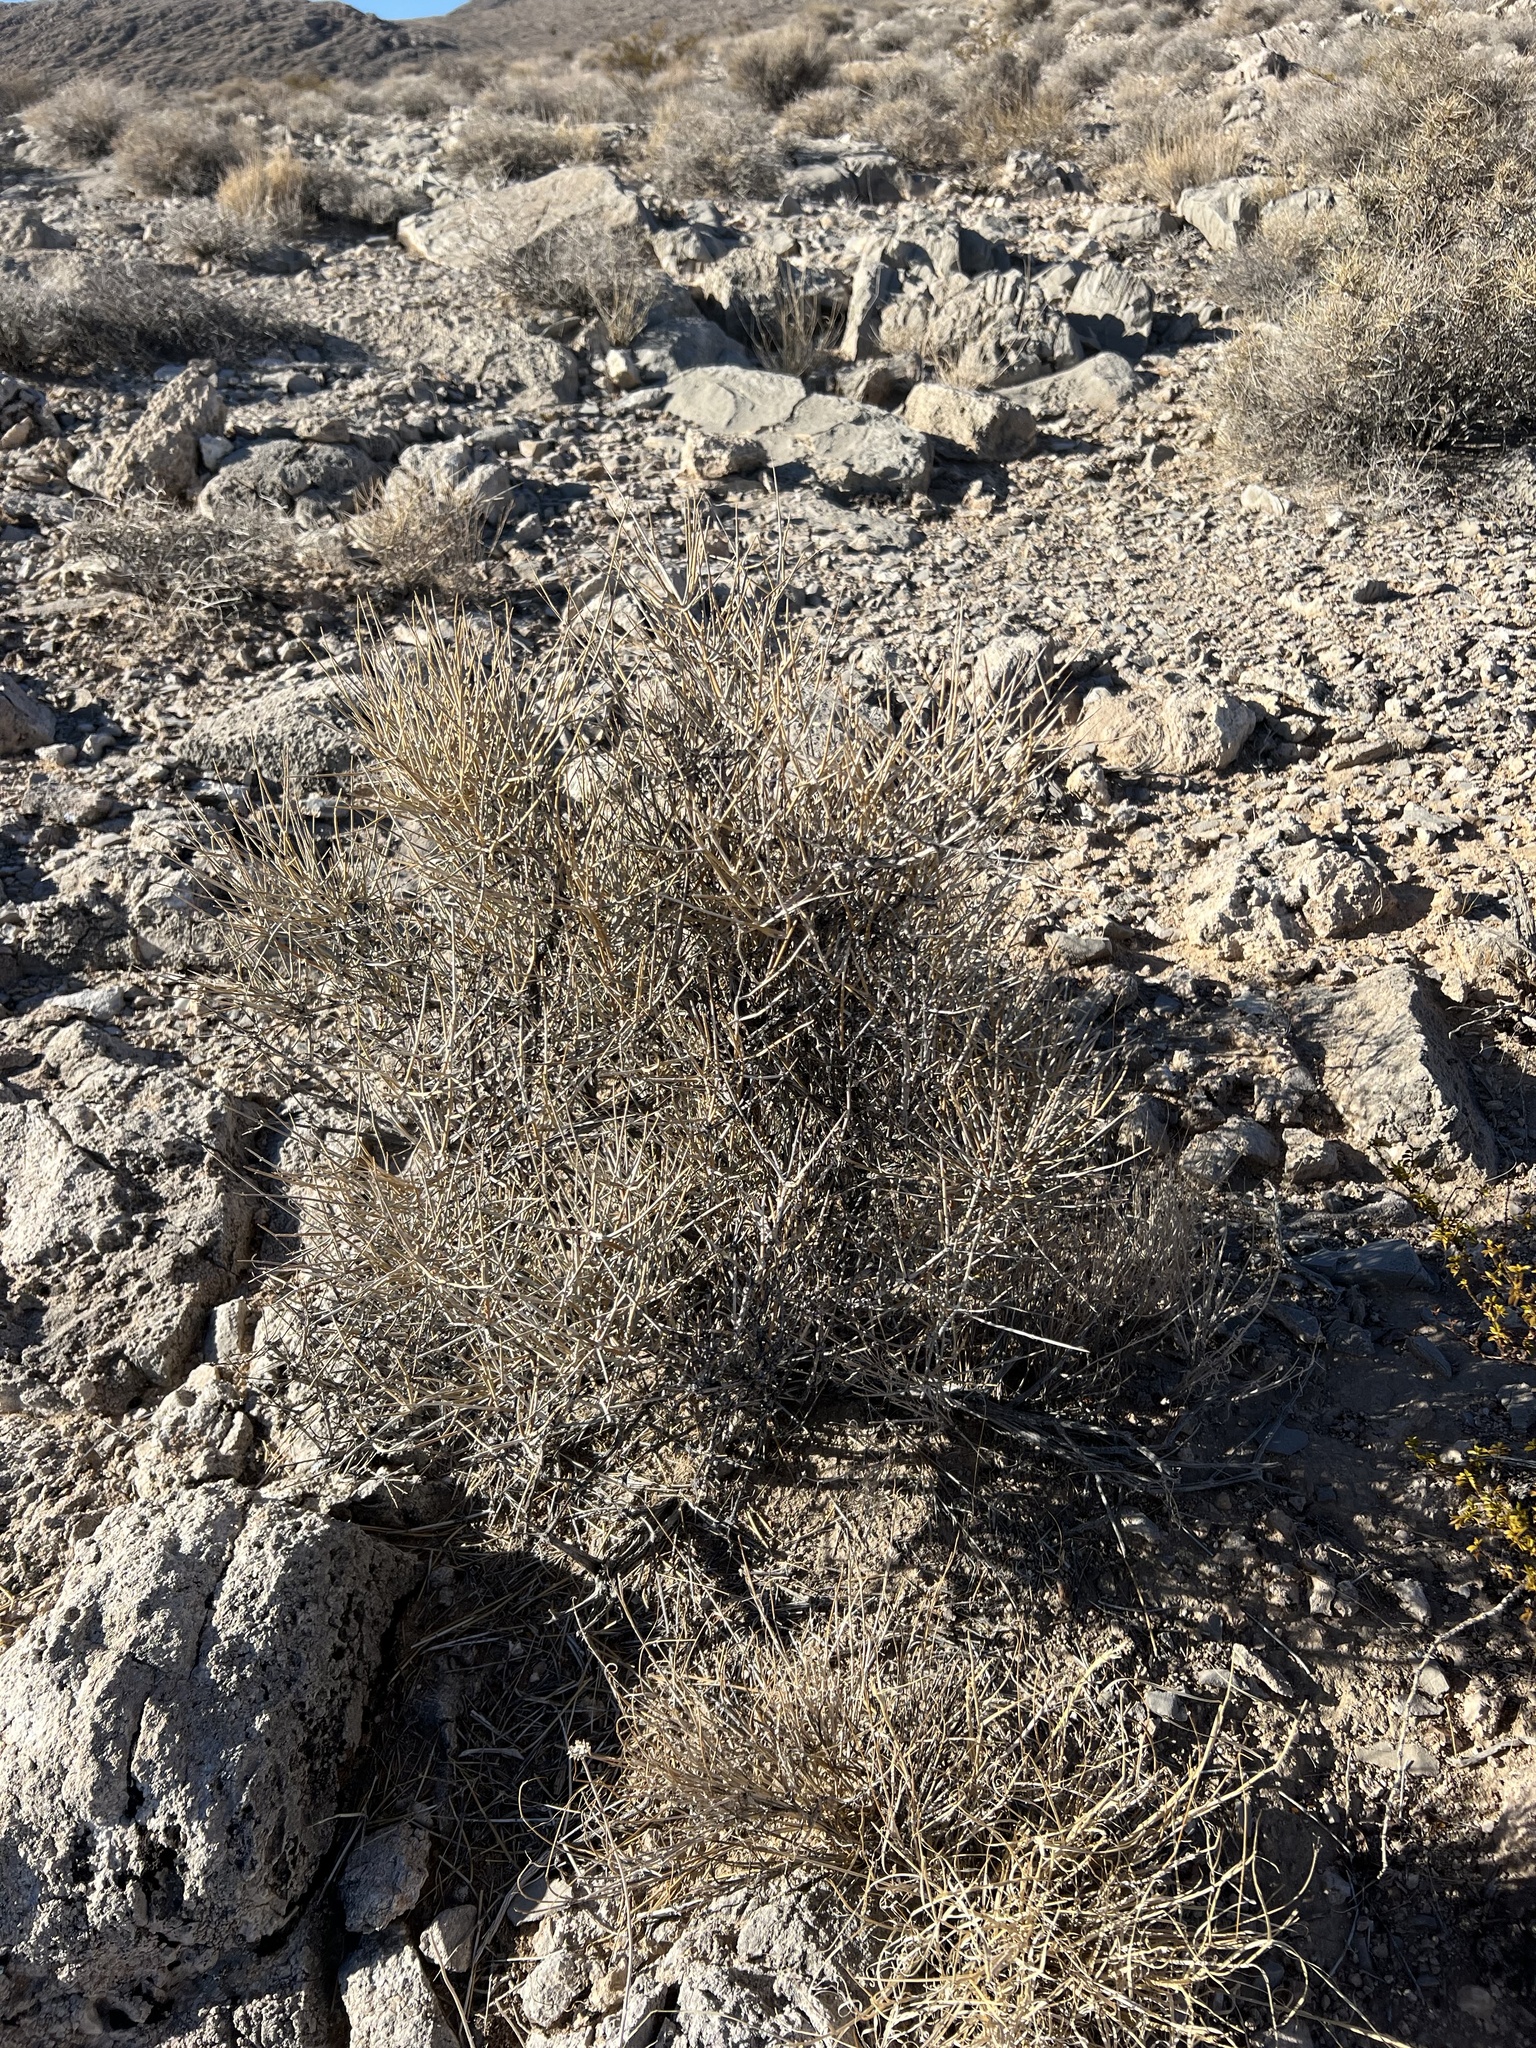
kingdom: Plantae
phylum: Tracheophyta
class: Gnetopsida
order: Ephedrales
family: Ephedraceae
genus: Ephedra
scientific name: Ephedra nevadensis
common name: Gray ephedra
